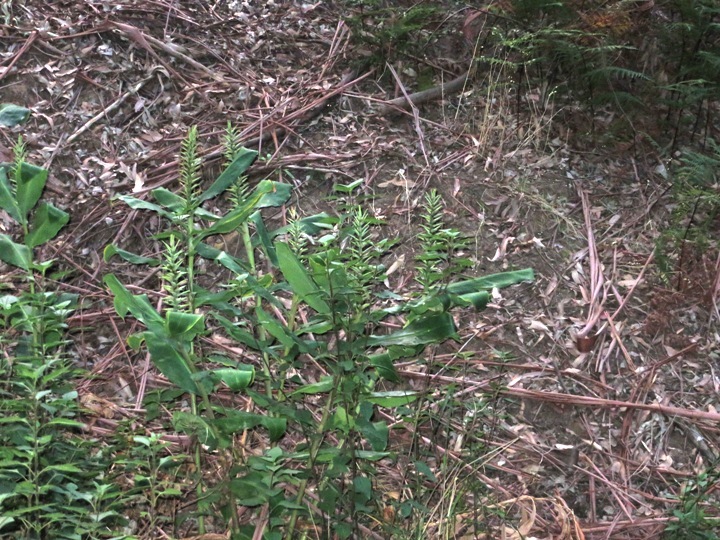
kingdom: Plantae
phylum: Tracheophyta
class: Liliopsida
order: Zingiberales
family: Zingiberaceae
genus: Hedychium
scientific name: Hedychium gardnerianum
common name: Himalayan ginger
